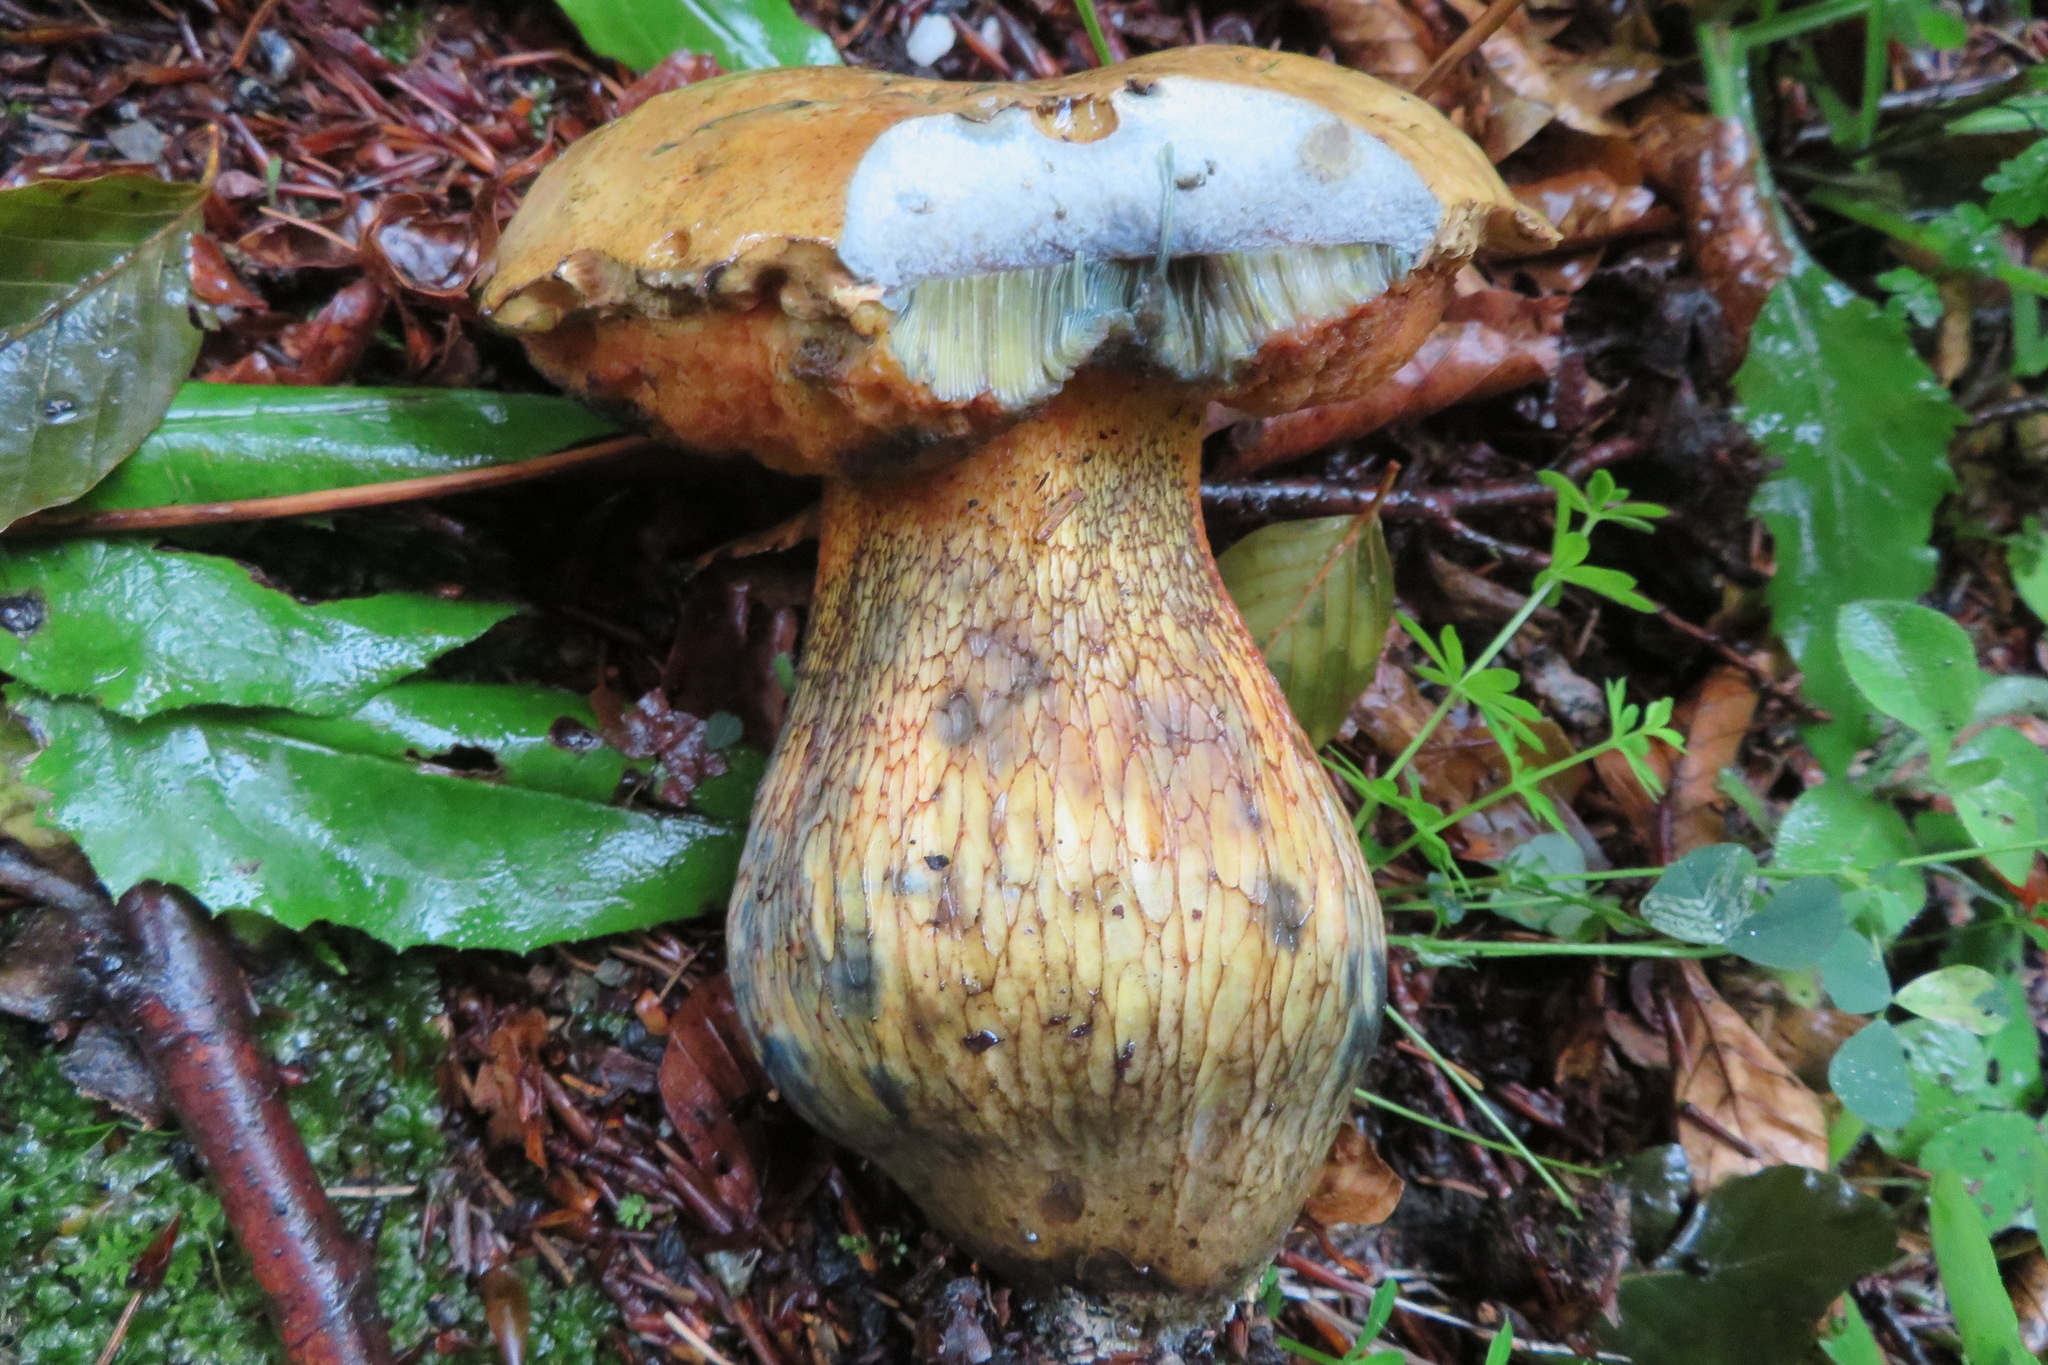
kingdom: Fungi
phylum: Basidiomycota
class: Agaricomycetes
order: Boletales
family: Boletaceae
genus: Suillellus
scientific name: Suillellus luridus
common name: Lurid bolete
